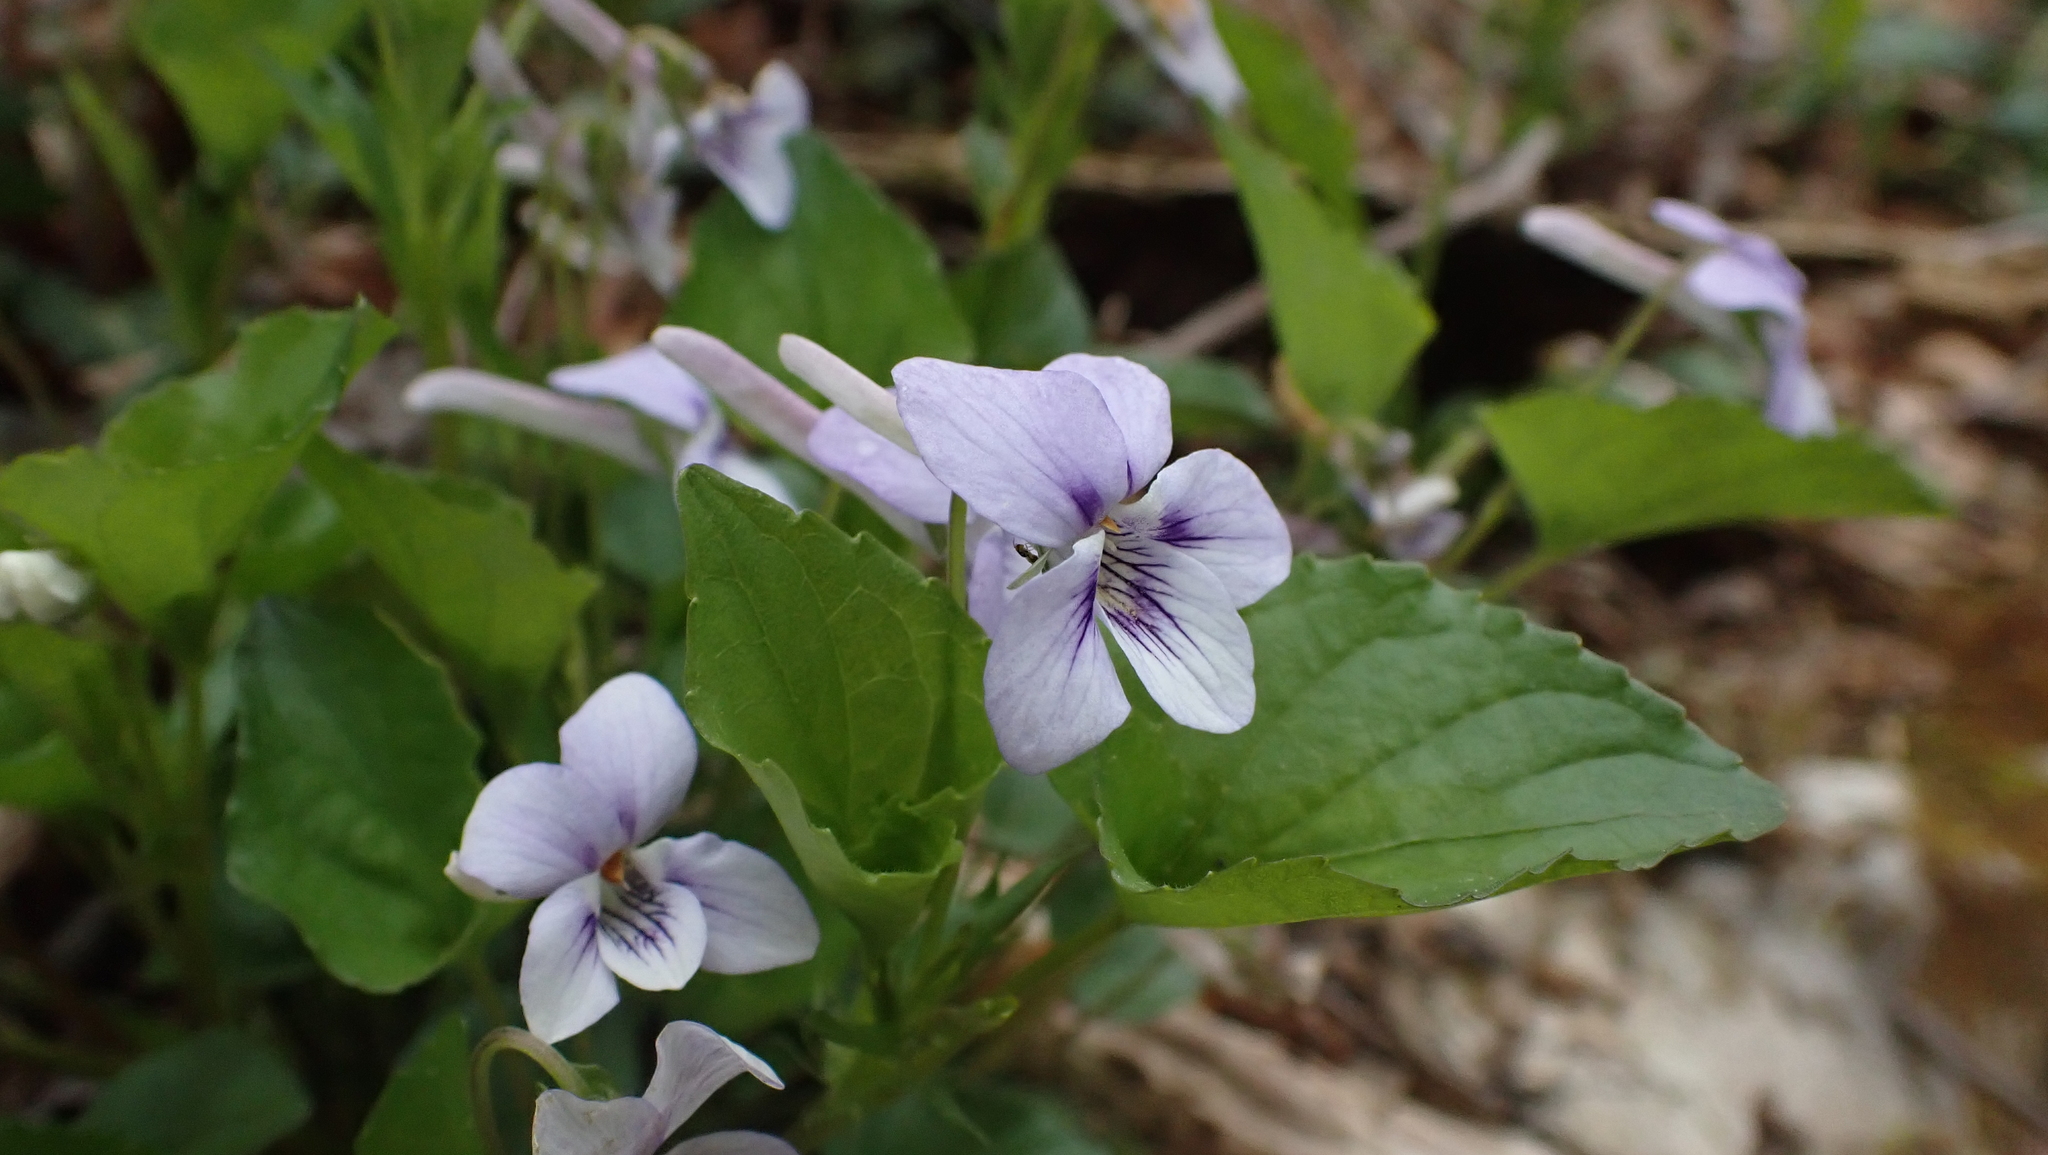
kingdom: Plantae
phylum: Tracheophyta
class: Magnoliopsida
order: Malpighiales
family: Violaceae
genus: Viola
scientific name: Viola rostrata
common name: Long-spur violet
